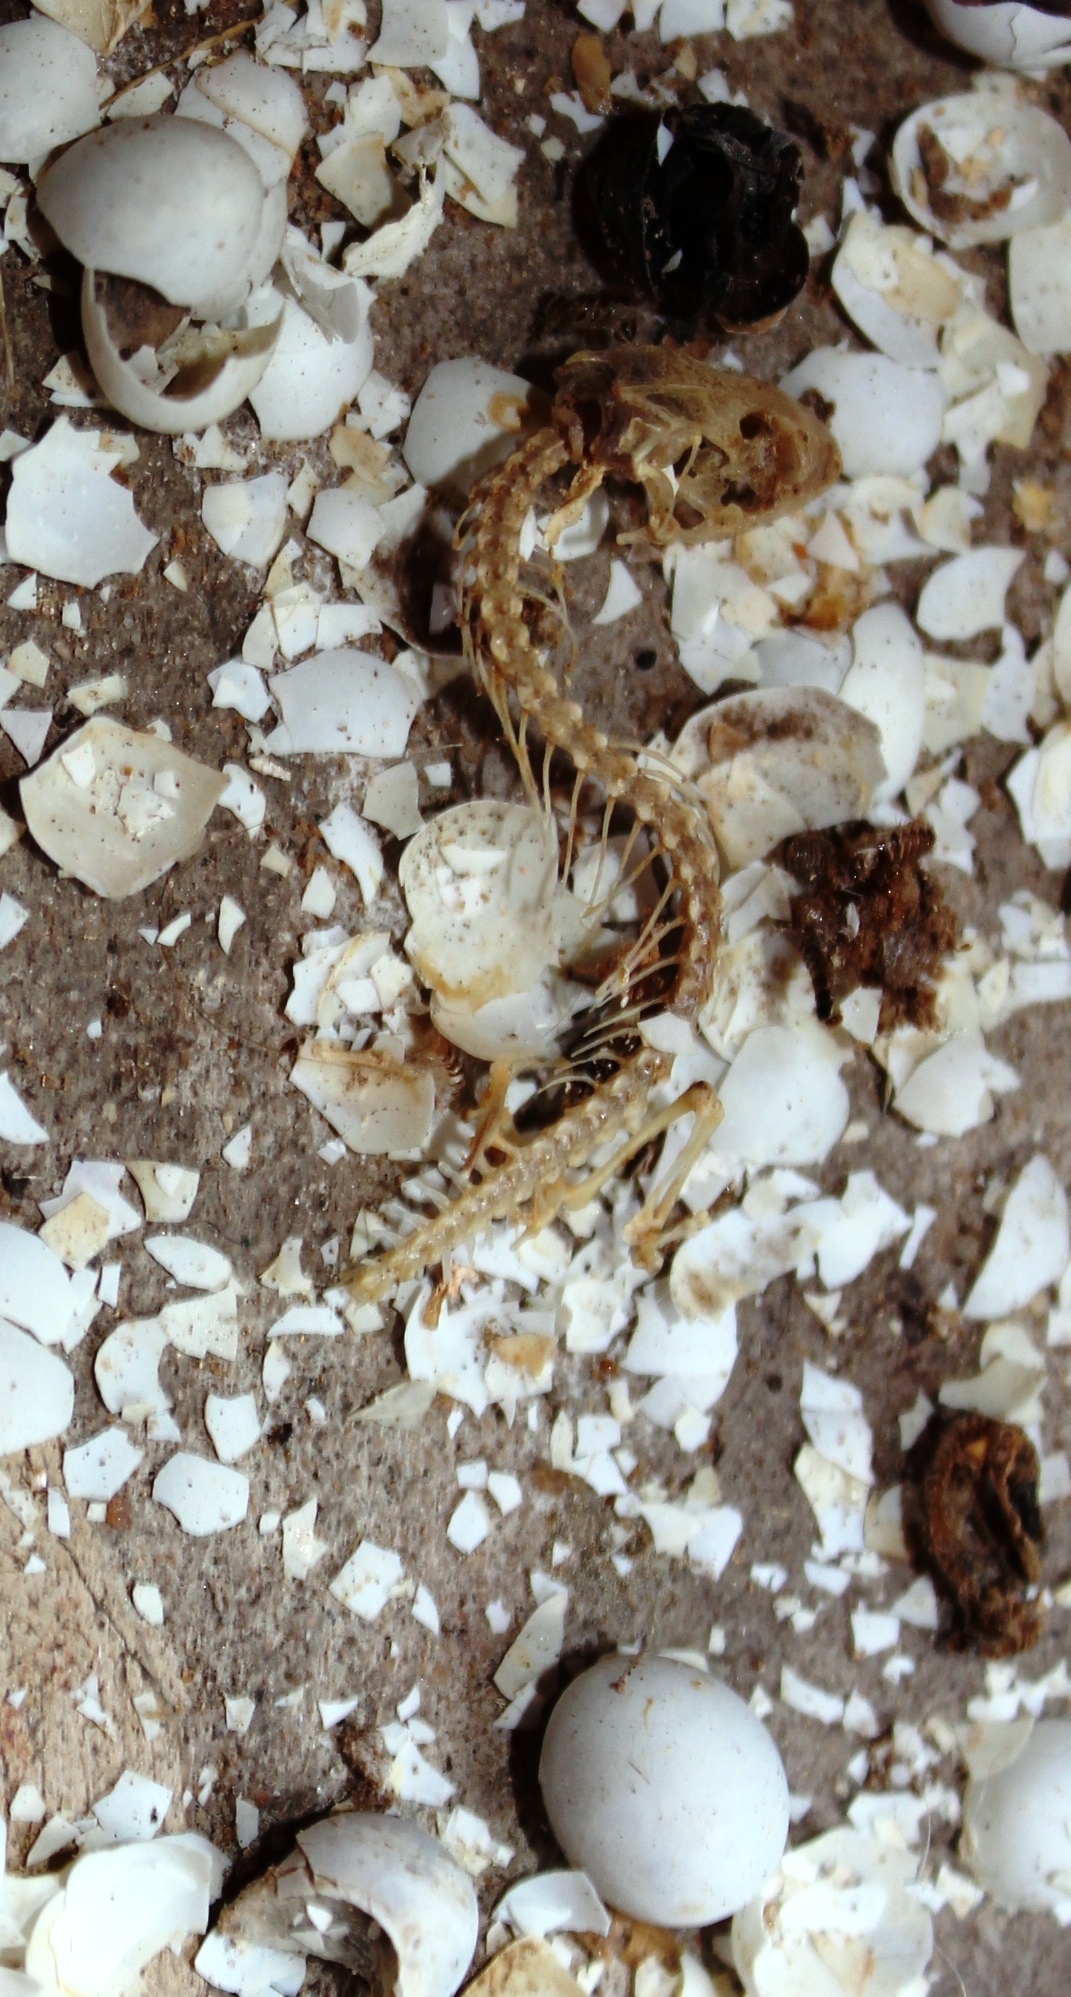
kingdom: Animalia
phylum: Chordata
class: Squamata
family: Gekkonidae
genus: Afrogecko
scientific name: Afrogecko porphyreus
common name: Marbled leaf-toed gecko
